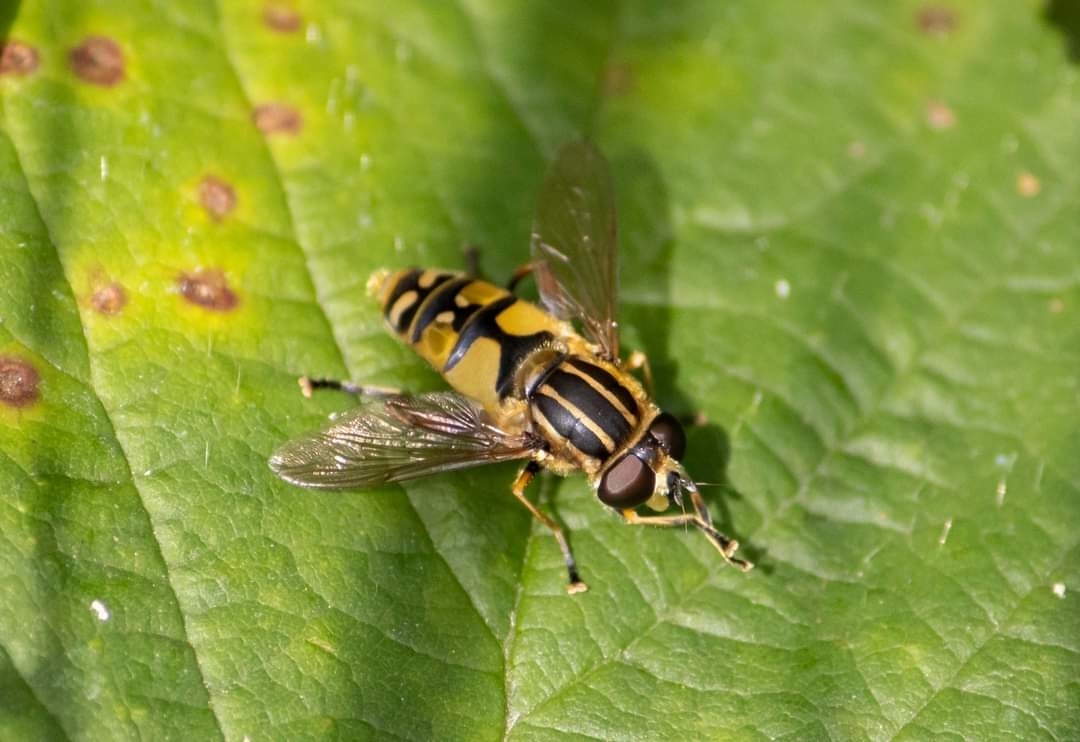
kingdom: Animalia
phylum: Arthropoda
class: Insecta
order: Diptera
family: Syrphidae
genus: Helophilus
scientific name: Helophilus pendulus
